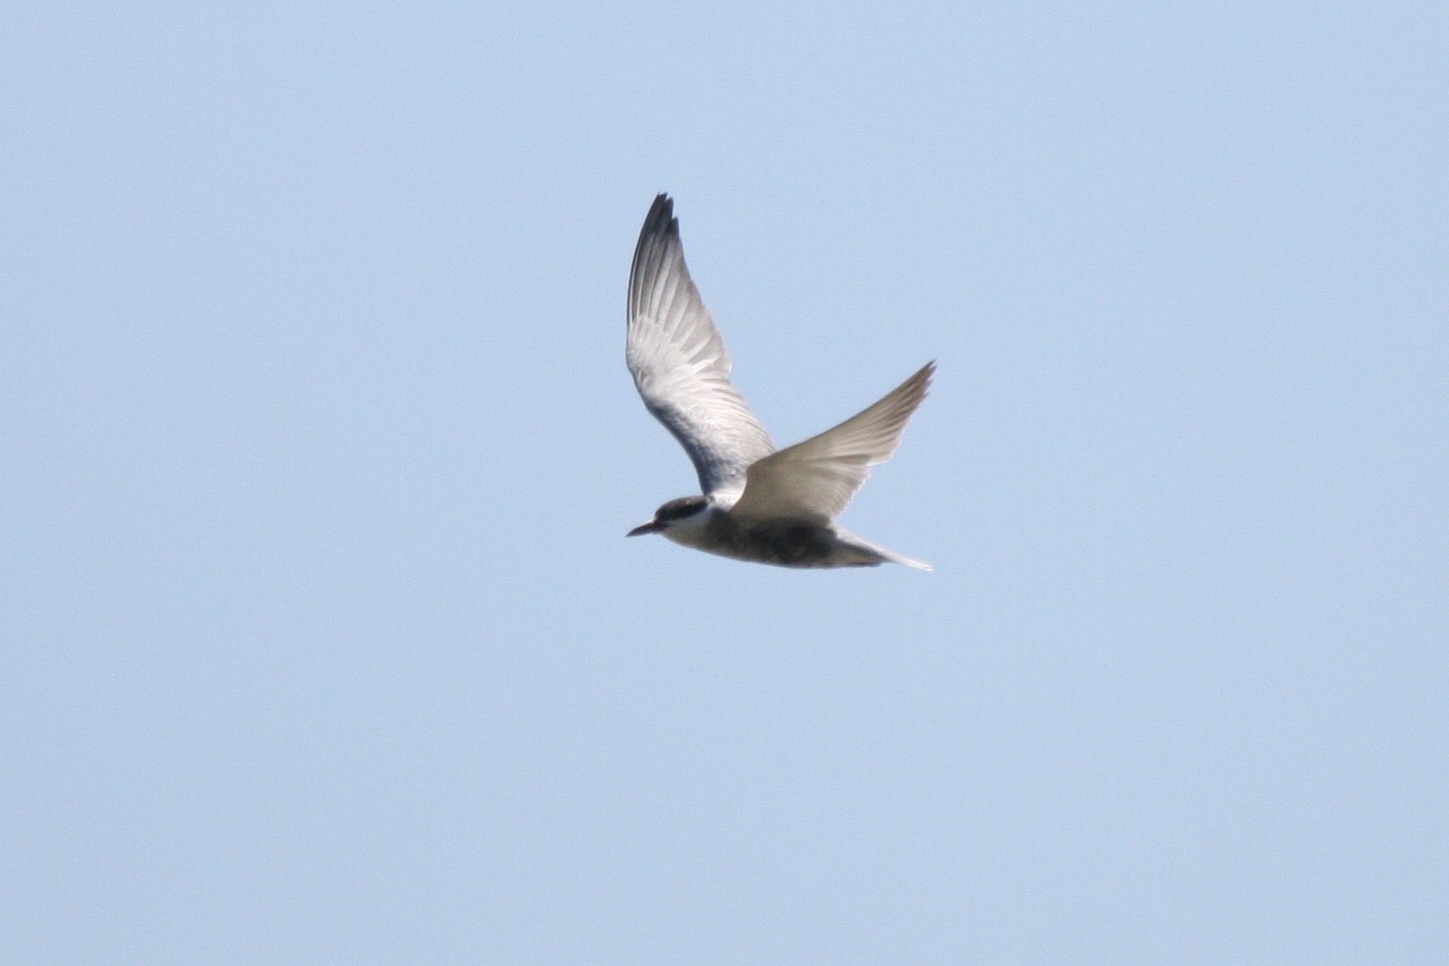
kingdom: Animalia
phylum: Chordata
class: Aves
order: Charadriiformes
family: Laridae
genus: Chlidonias
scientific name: Chlidonias hybrida
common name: Whiskered tern
